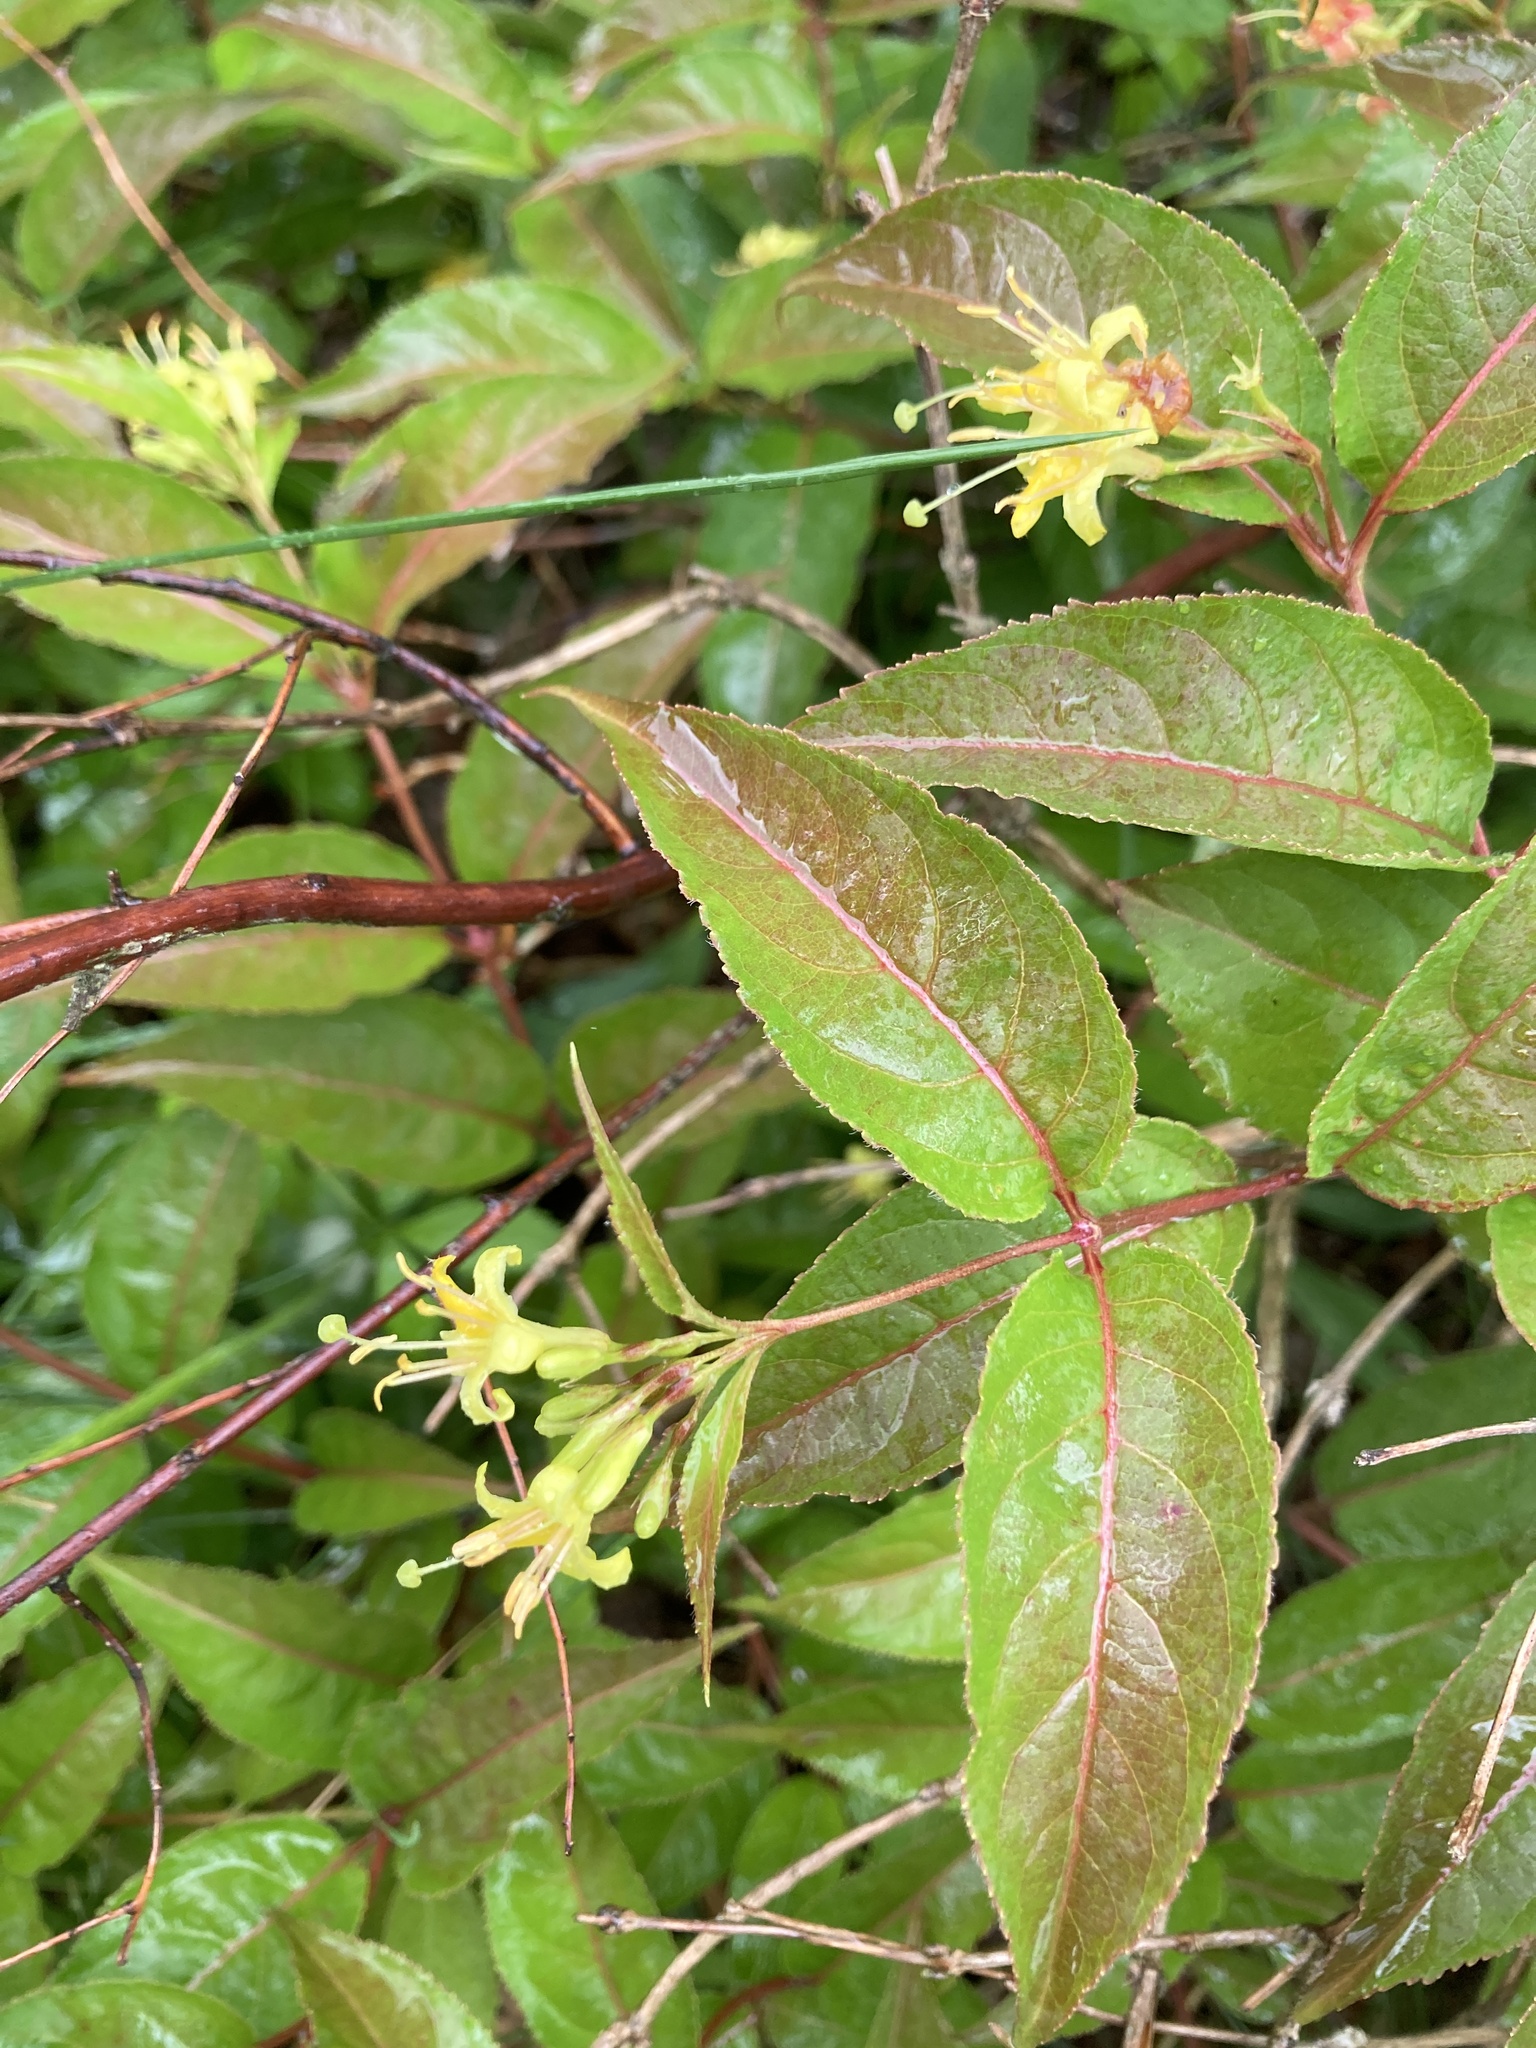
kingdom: Plantae
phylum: Tracheophyta
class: Magnoliopsida
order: Dipsacales
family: Caprifoliaceae
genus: Diervilla
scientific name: Diervilla lonicera
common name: Bush-honeysuckle
